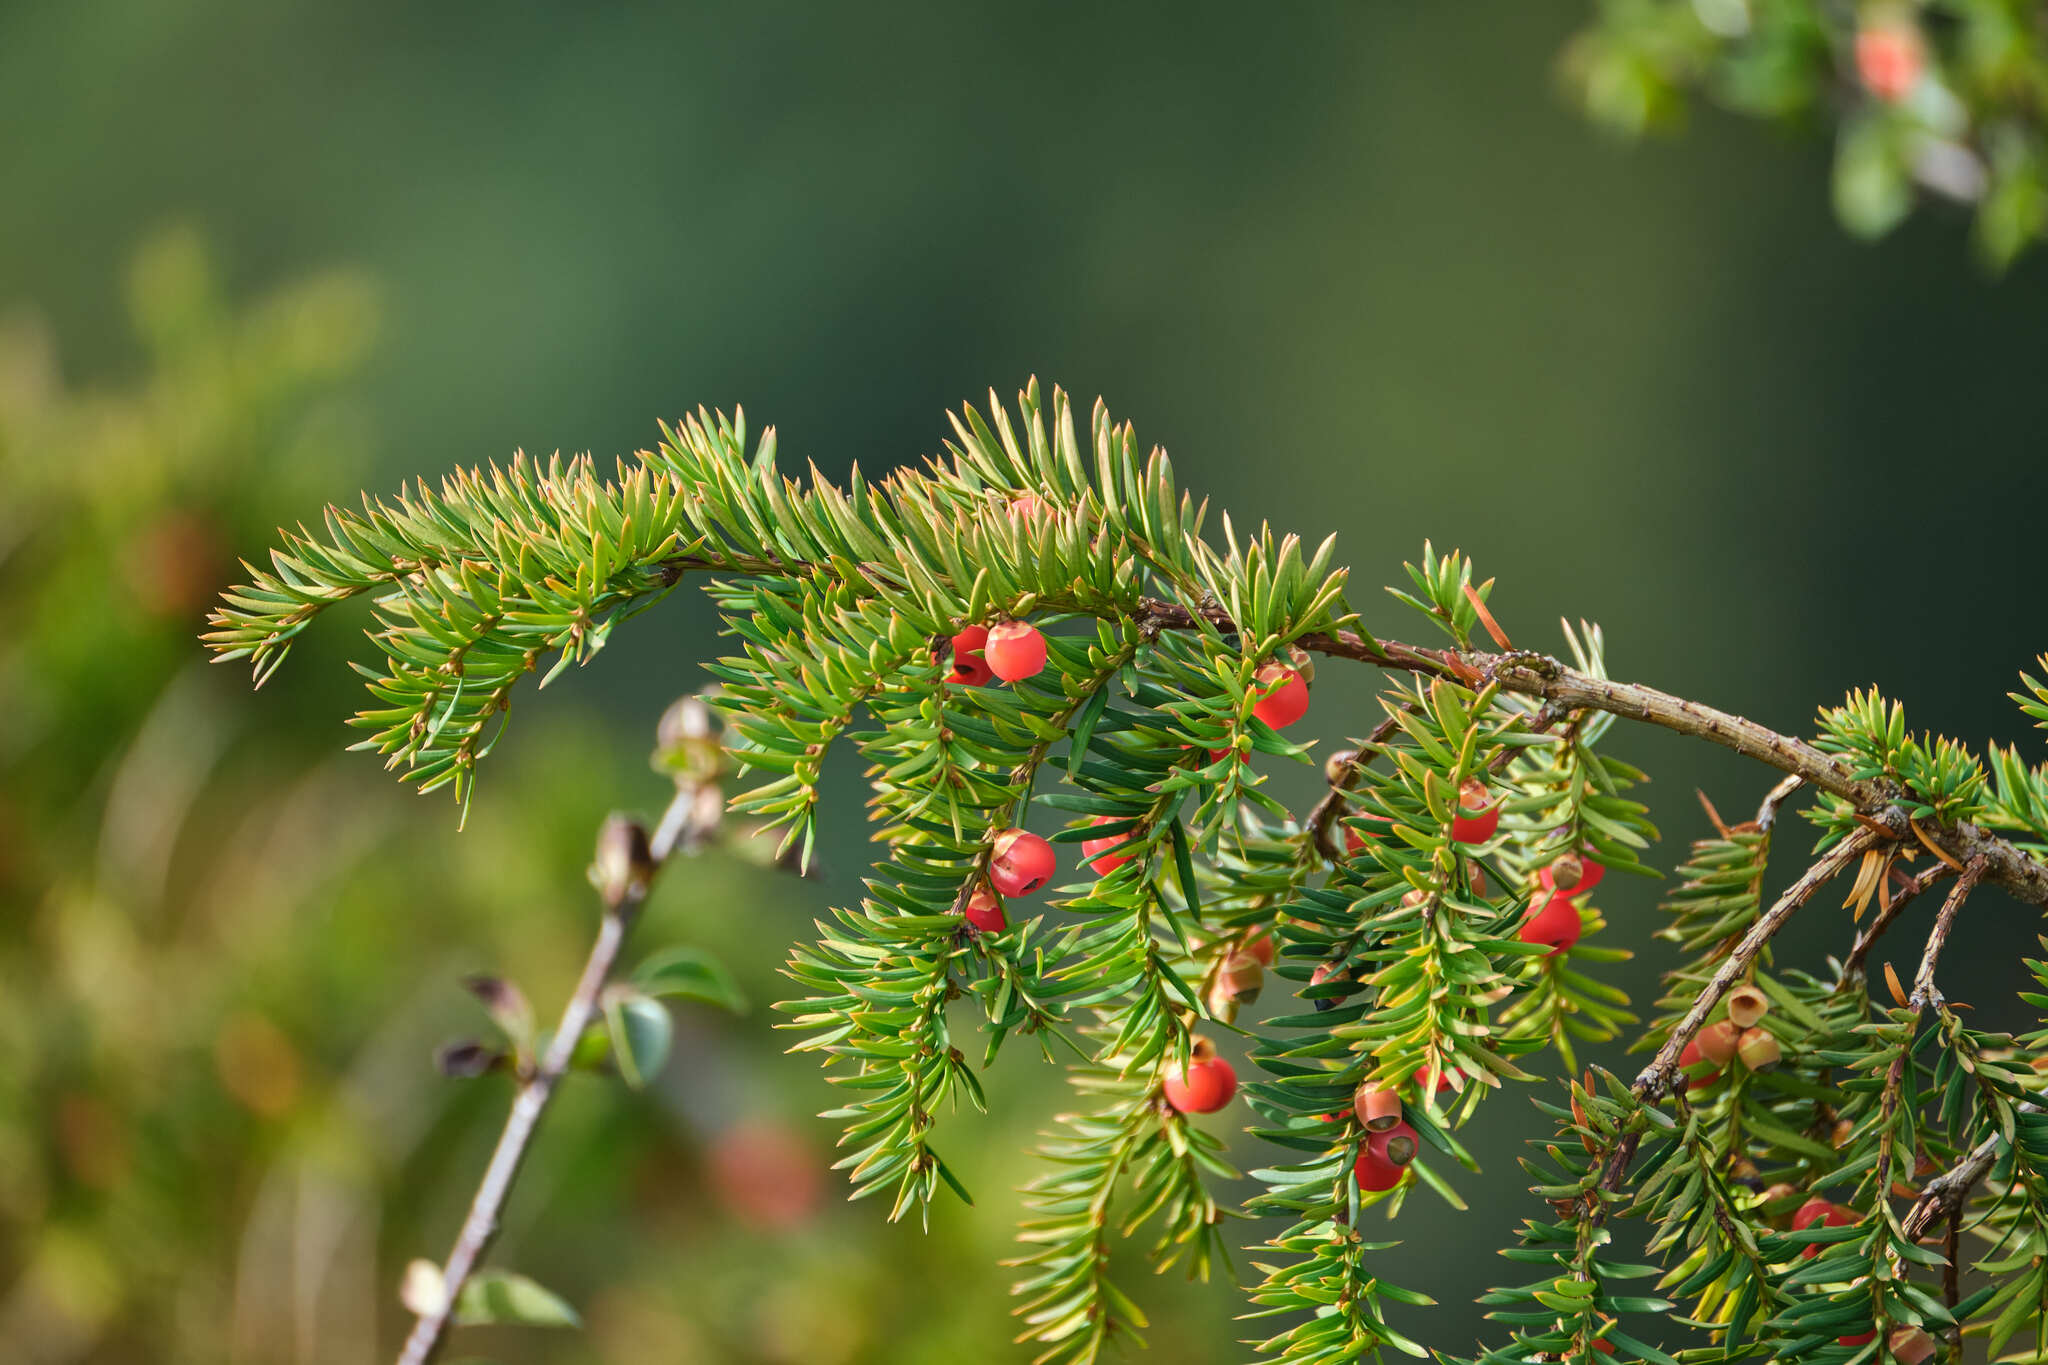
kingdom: Plantae
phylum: Tracheophyta
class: Pinopsida
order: Pinales
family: Taxaceae
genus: Taxus
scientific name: Taxus baccata
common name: Yew
